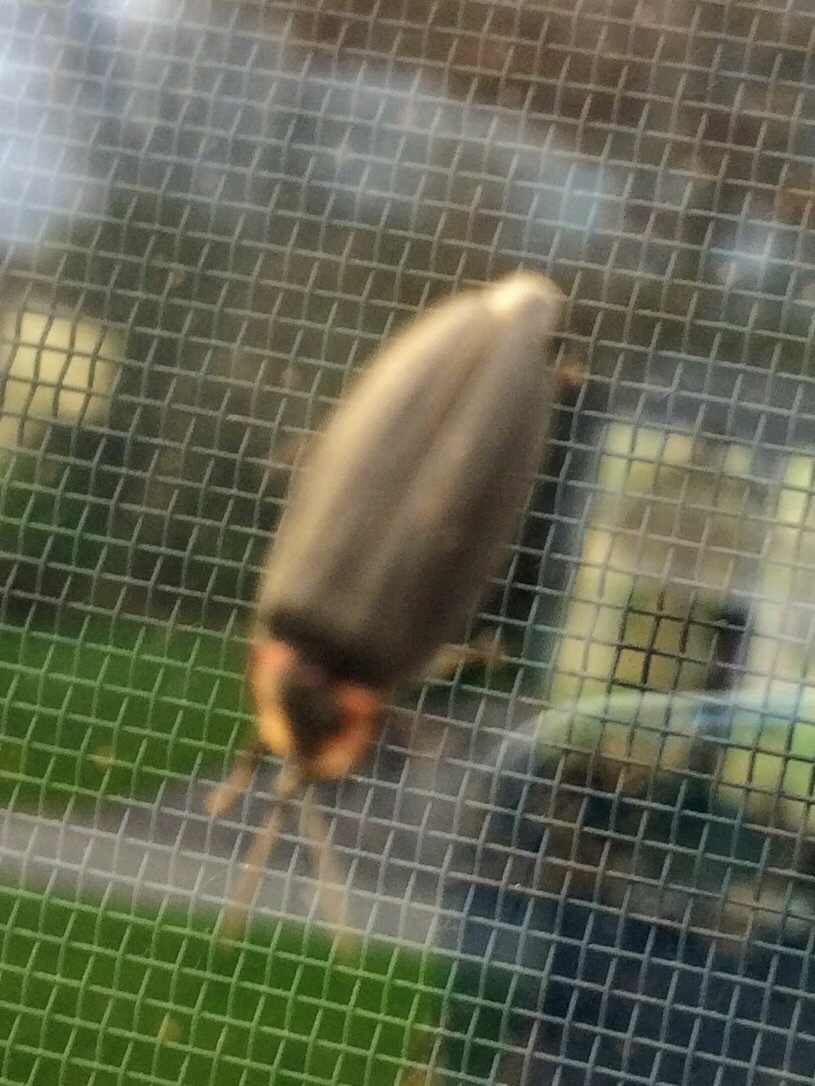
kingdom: Animalia
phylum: Arthropoda
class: Insecta
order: Coleoptera
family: Lampyridae
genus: Photinus
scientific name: Photinus corrusca
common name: Winter firefly
